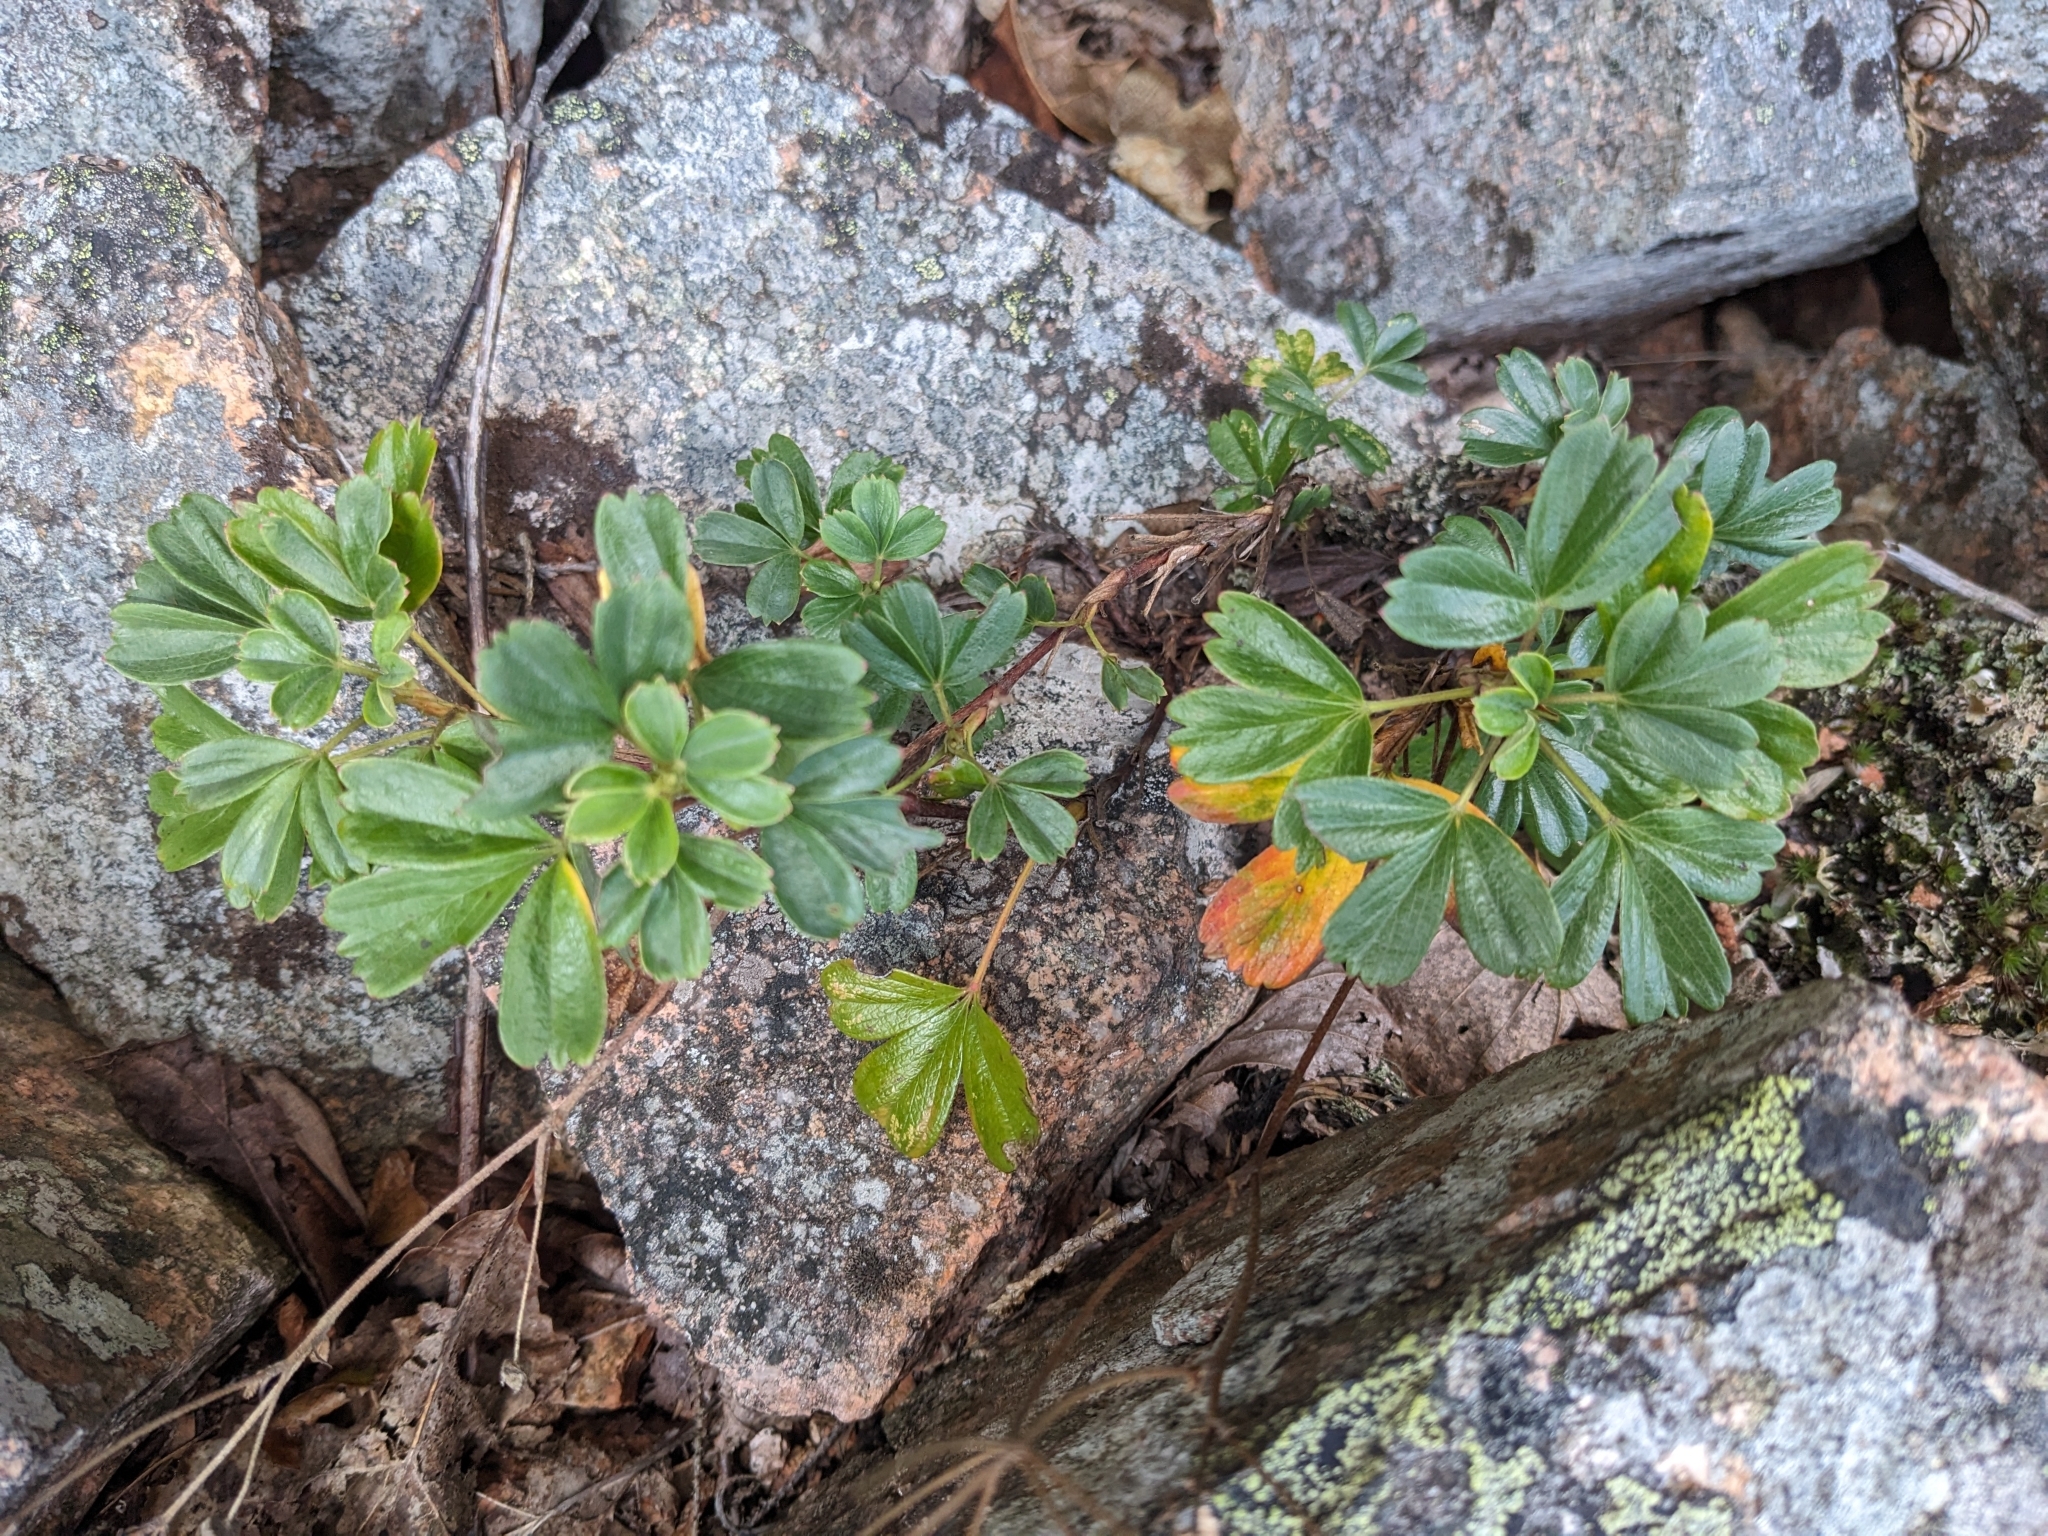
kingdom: Plantae
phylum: Tracheophyta
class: Magnoliopsida
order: Rosales
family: Rosaceae
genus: Sibbaldia
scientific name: Sibbaldia tridentata
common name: Three-toothed cinquefoil
